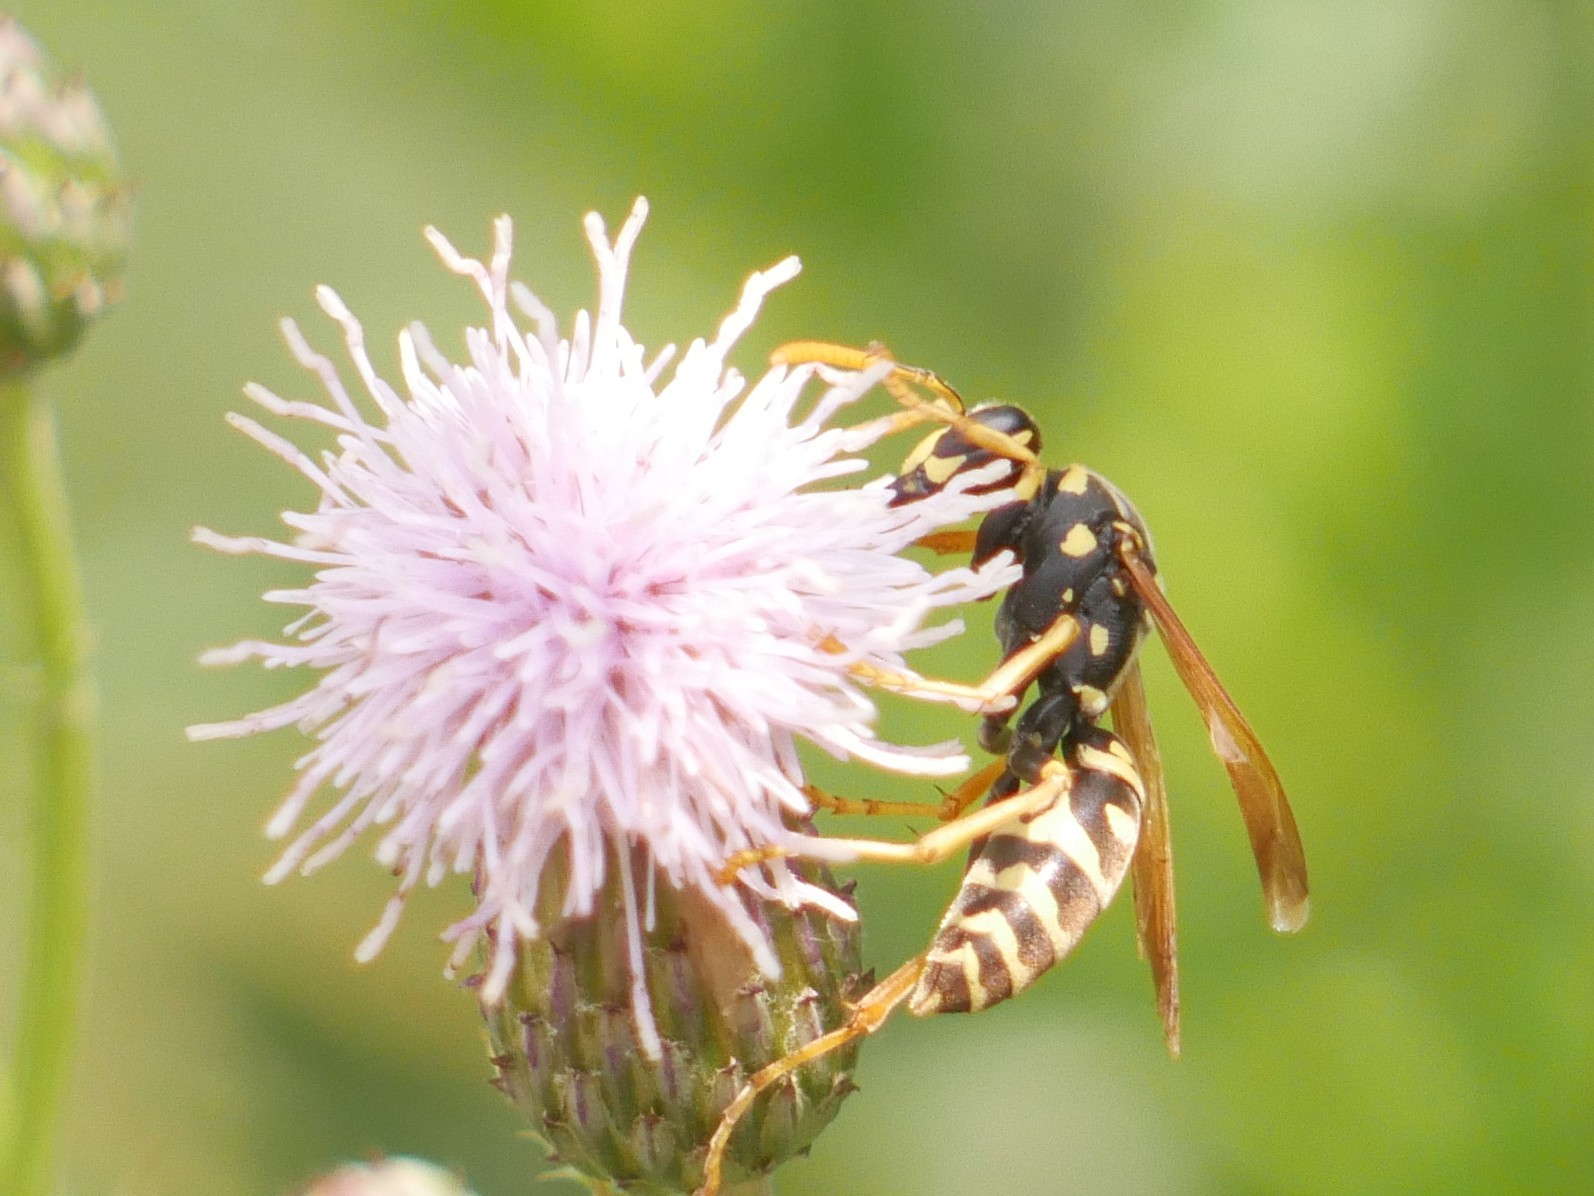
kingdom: Animalia
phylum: Arthropoda
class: Insecta
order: Hymenoptera
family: Eumenidae
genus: Polistes
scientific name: Polistes dominula
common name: Paper wasp
